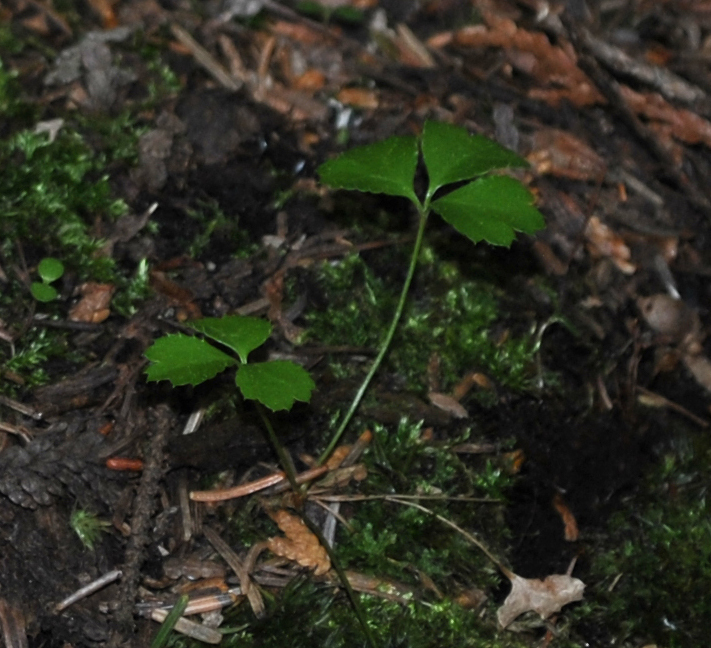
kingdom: Plantae
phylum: Tracheophyta
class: Magnoliopsida
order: Ranunculales
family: Ranunculaceae
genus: Coptis
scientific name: Coptis trifolia
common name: Canker-root
